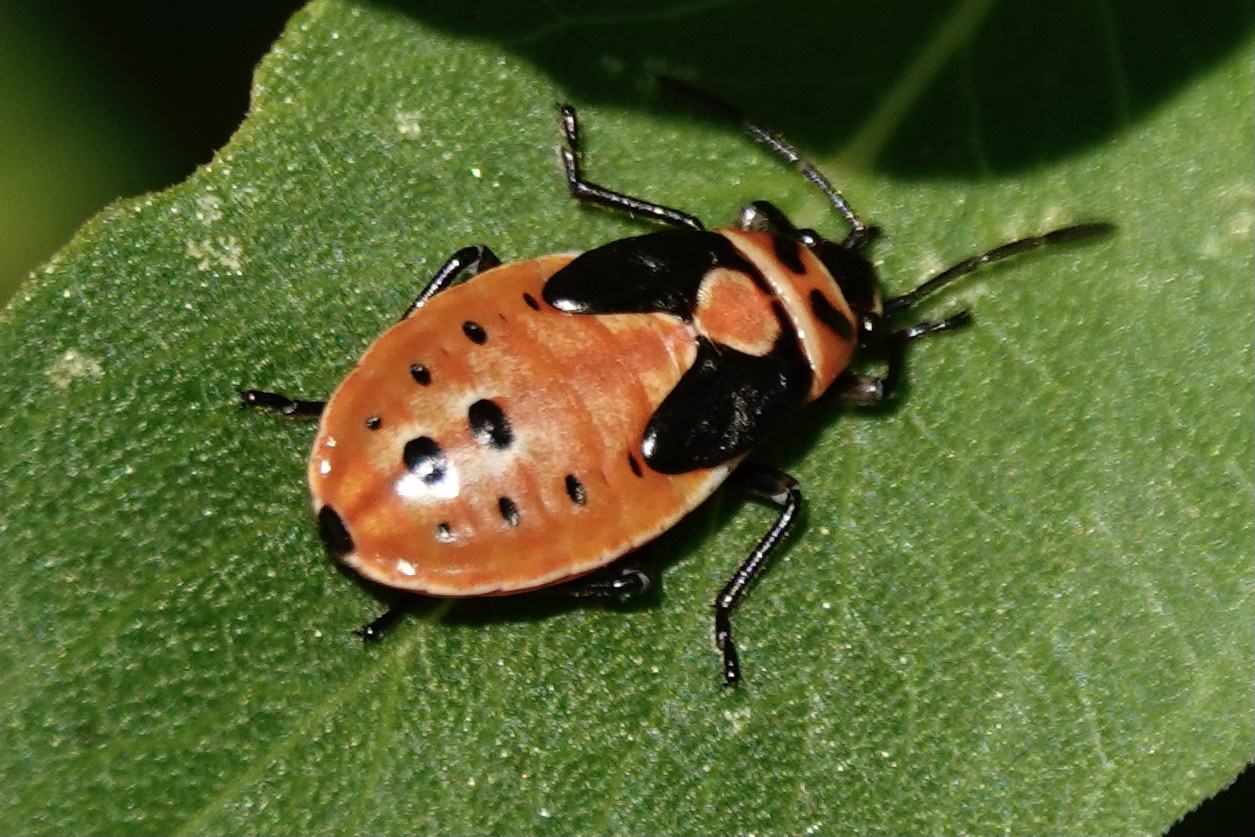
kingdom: Animalia
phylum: Arthropoda
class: Insecta
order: Hemiptera
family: Lygaeidae
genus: Lygaeus
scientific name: Lygaeus kalmii
